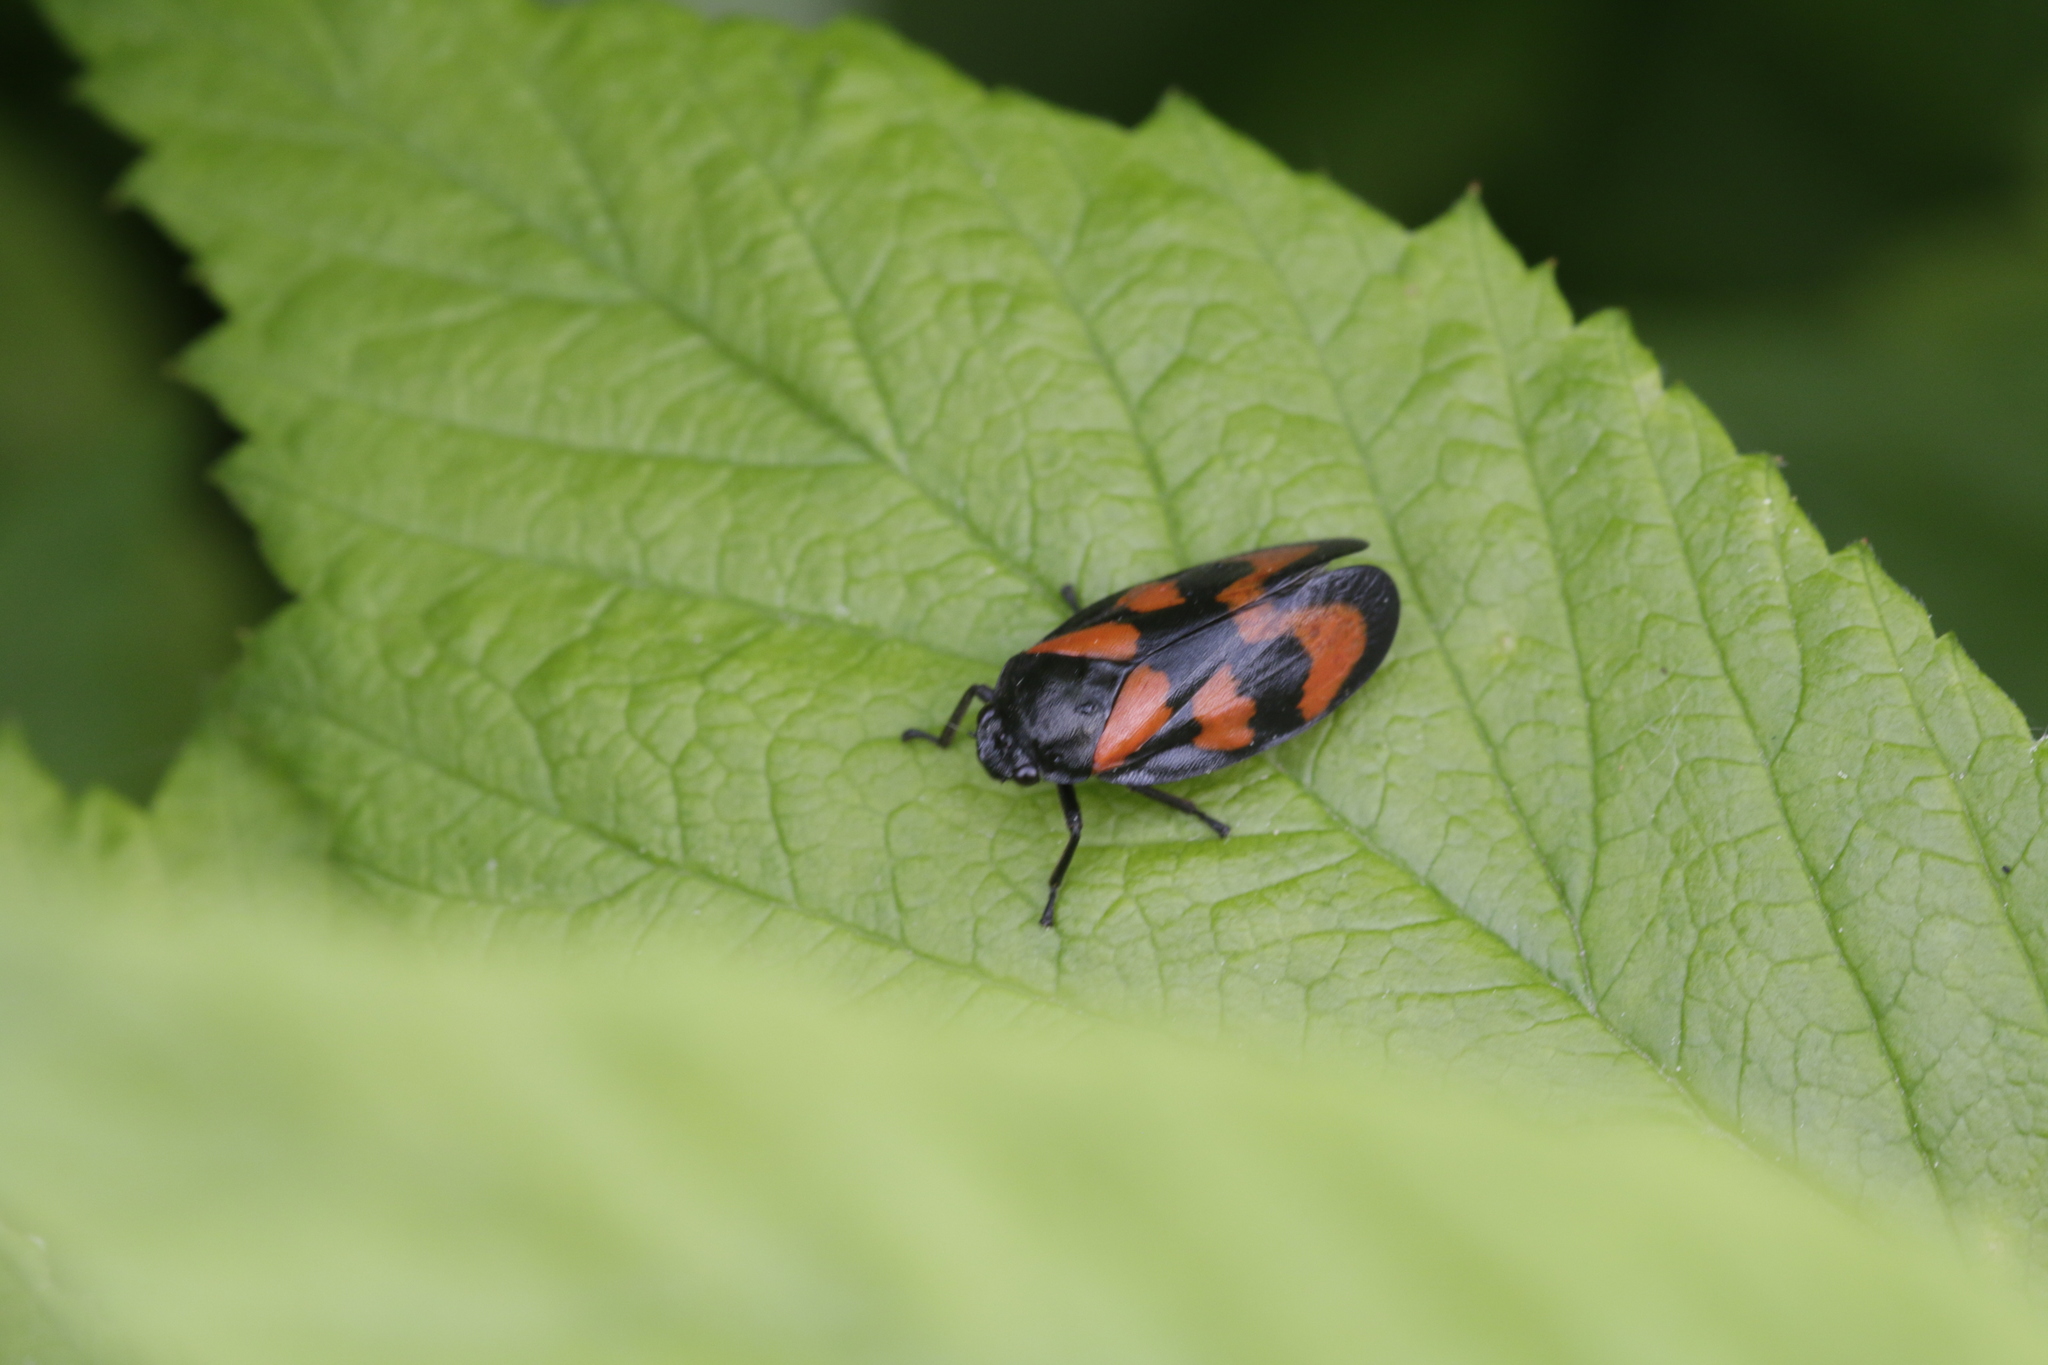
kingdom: Animalia
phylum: Arthropoda
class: Insecta
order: Hemiptera
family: Cercopidae
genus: Cercopis
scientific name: Cercopis vulnerata
